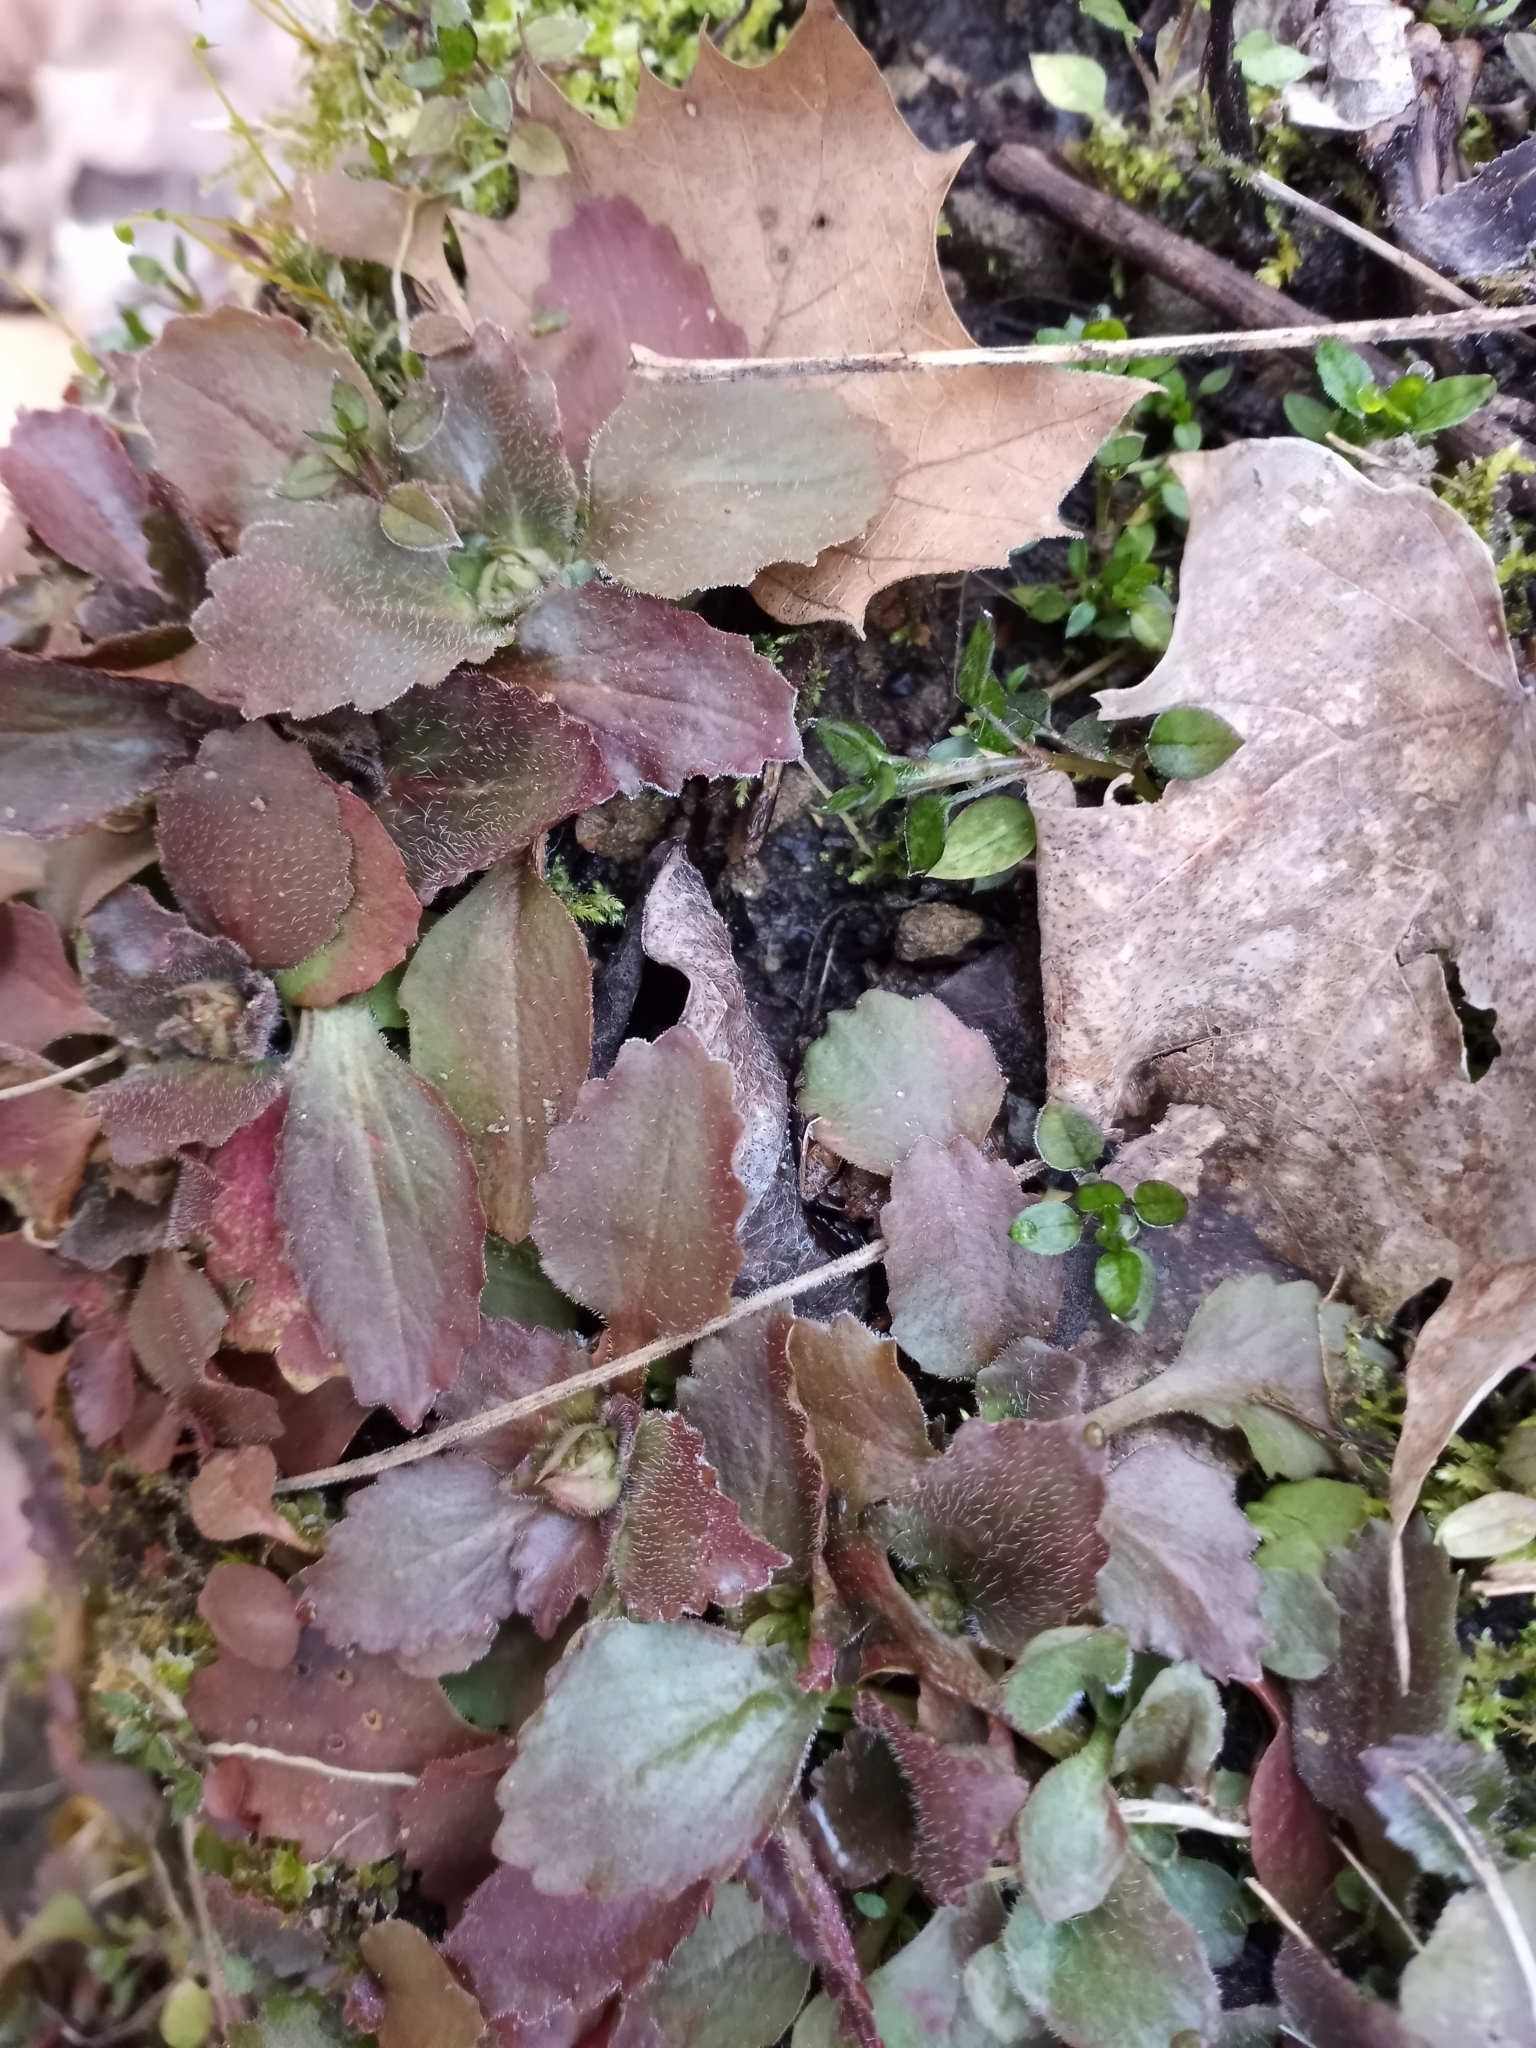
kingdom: Plantae
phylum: Tracheophyta
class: Magnoliopsida
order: Saxifragales
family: Saxifragaceae
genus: Micranthes
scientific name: Micranthes virginiensis
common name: Early saxifrage
